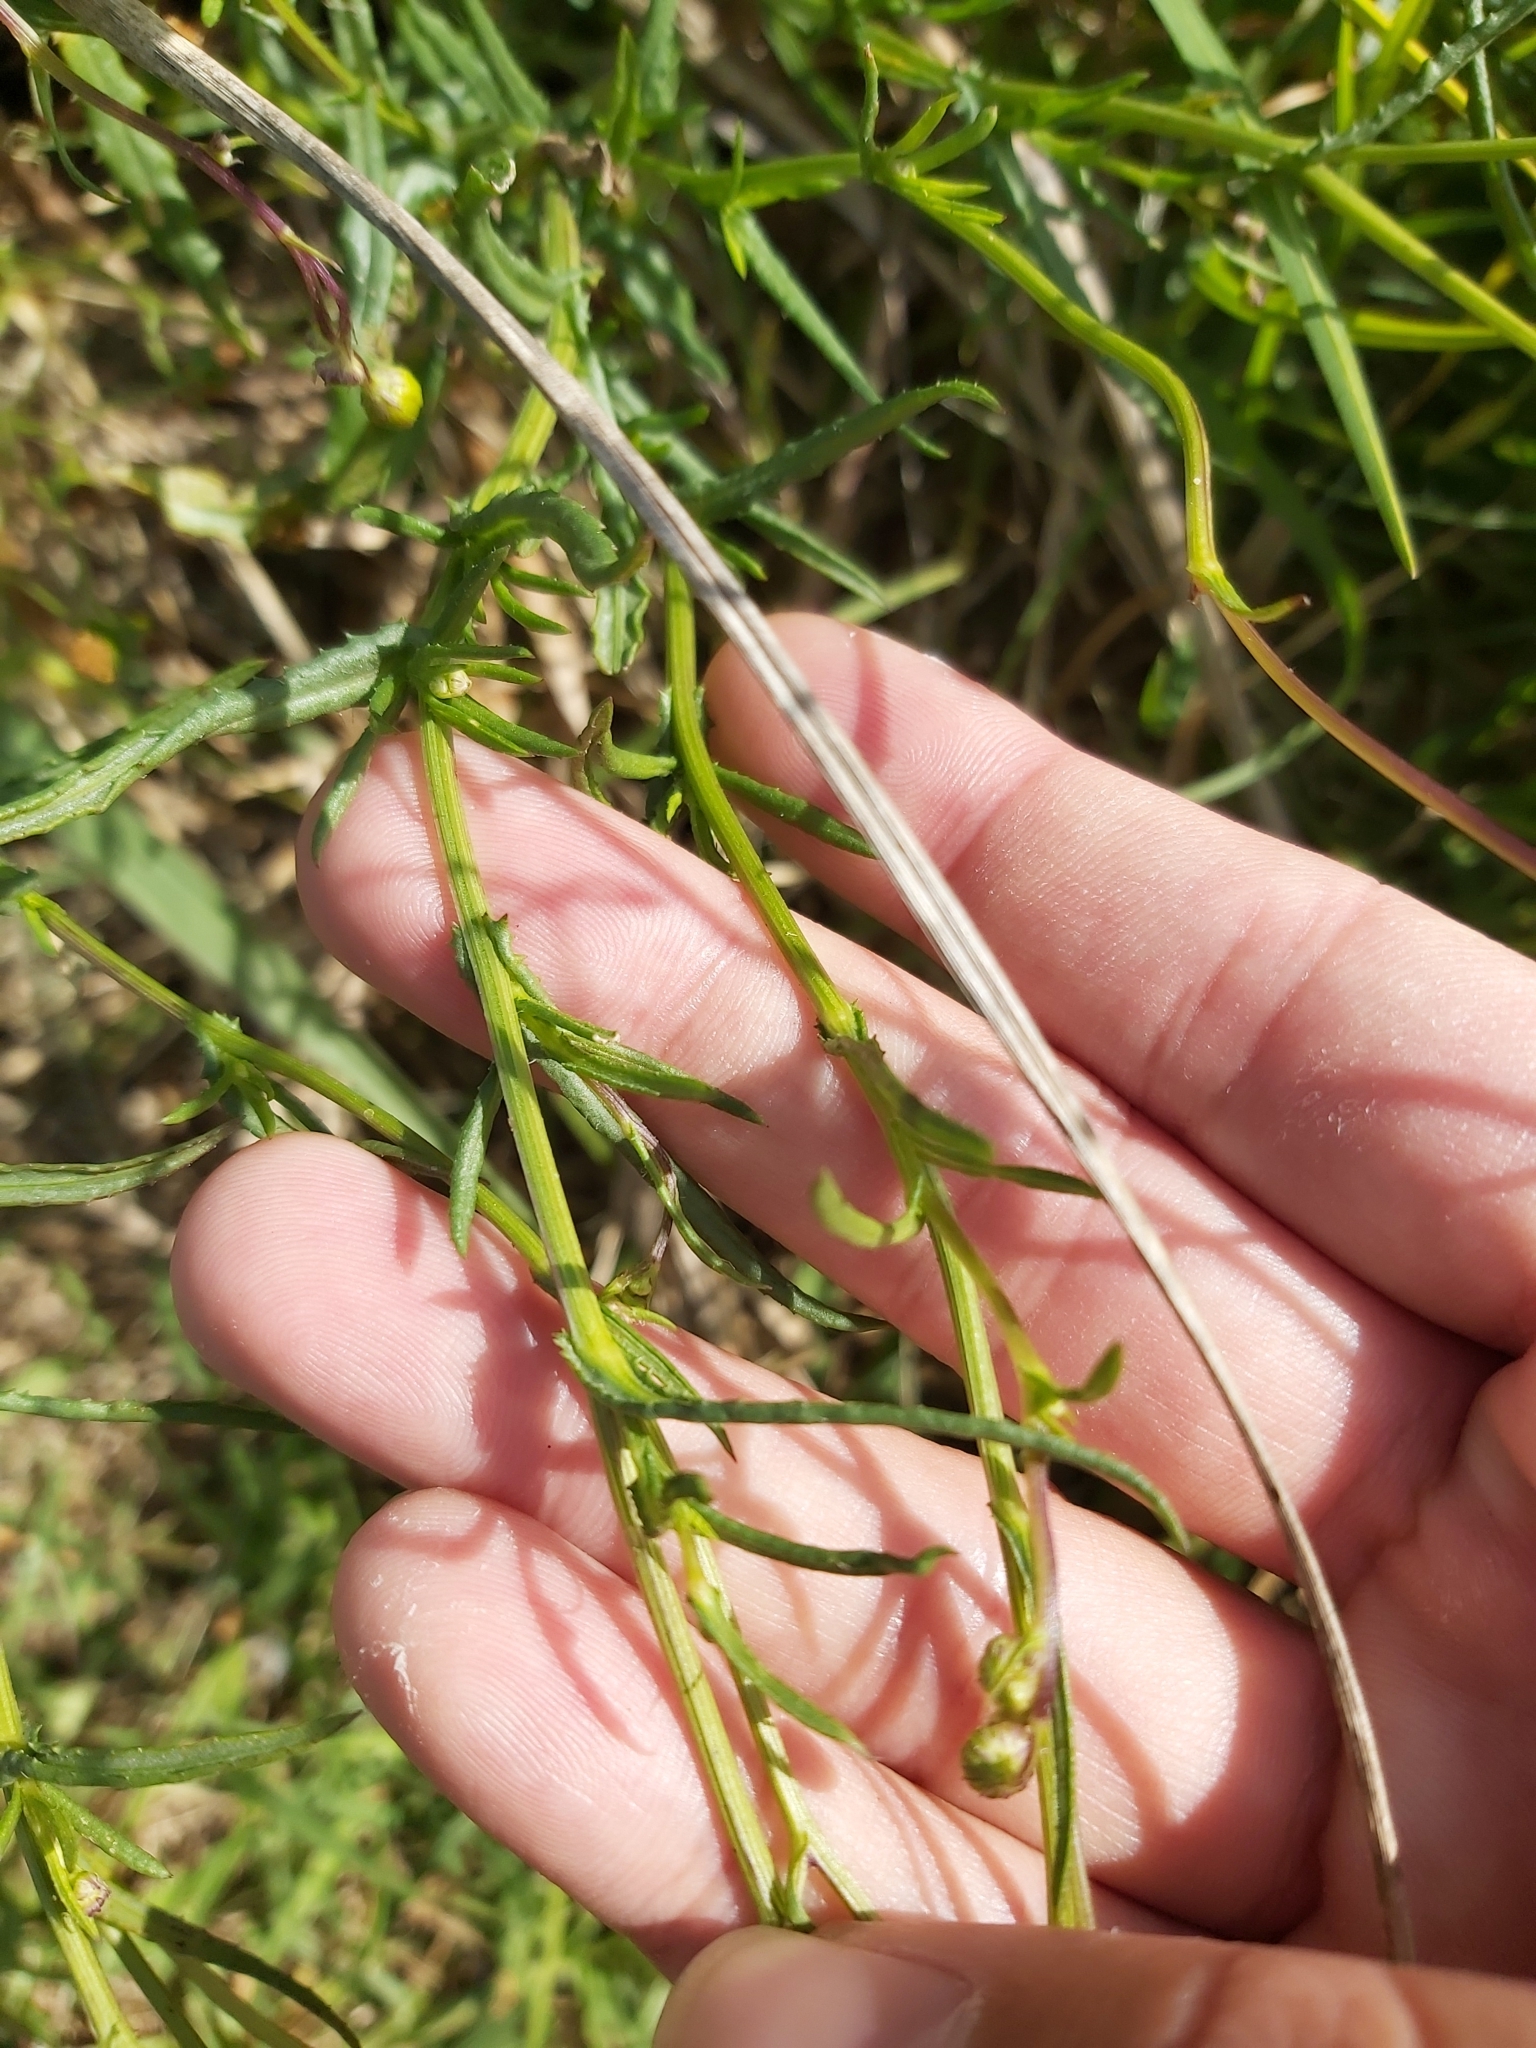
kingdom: Plantae
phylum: Tracheophyta
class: Magnoliopsida
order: Asterales
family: Asteraceae
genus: Senecio
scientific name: Senecio madagascariensis
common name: Madagascar ragwort
